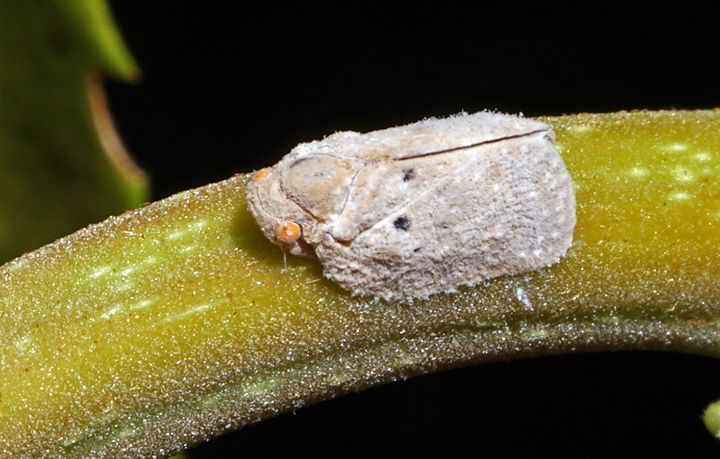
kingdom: Animalia
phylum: Arthropoda
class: Insecta
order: Hemiptera
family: Flatidae
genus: Melormenis
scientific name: Melormenis basalis
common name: Puerto rican planthopper
